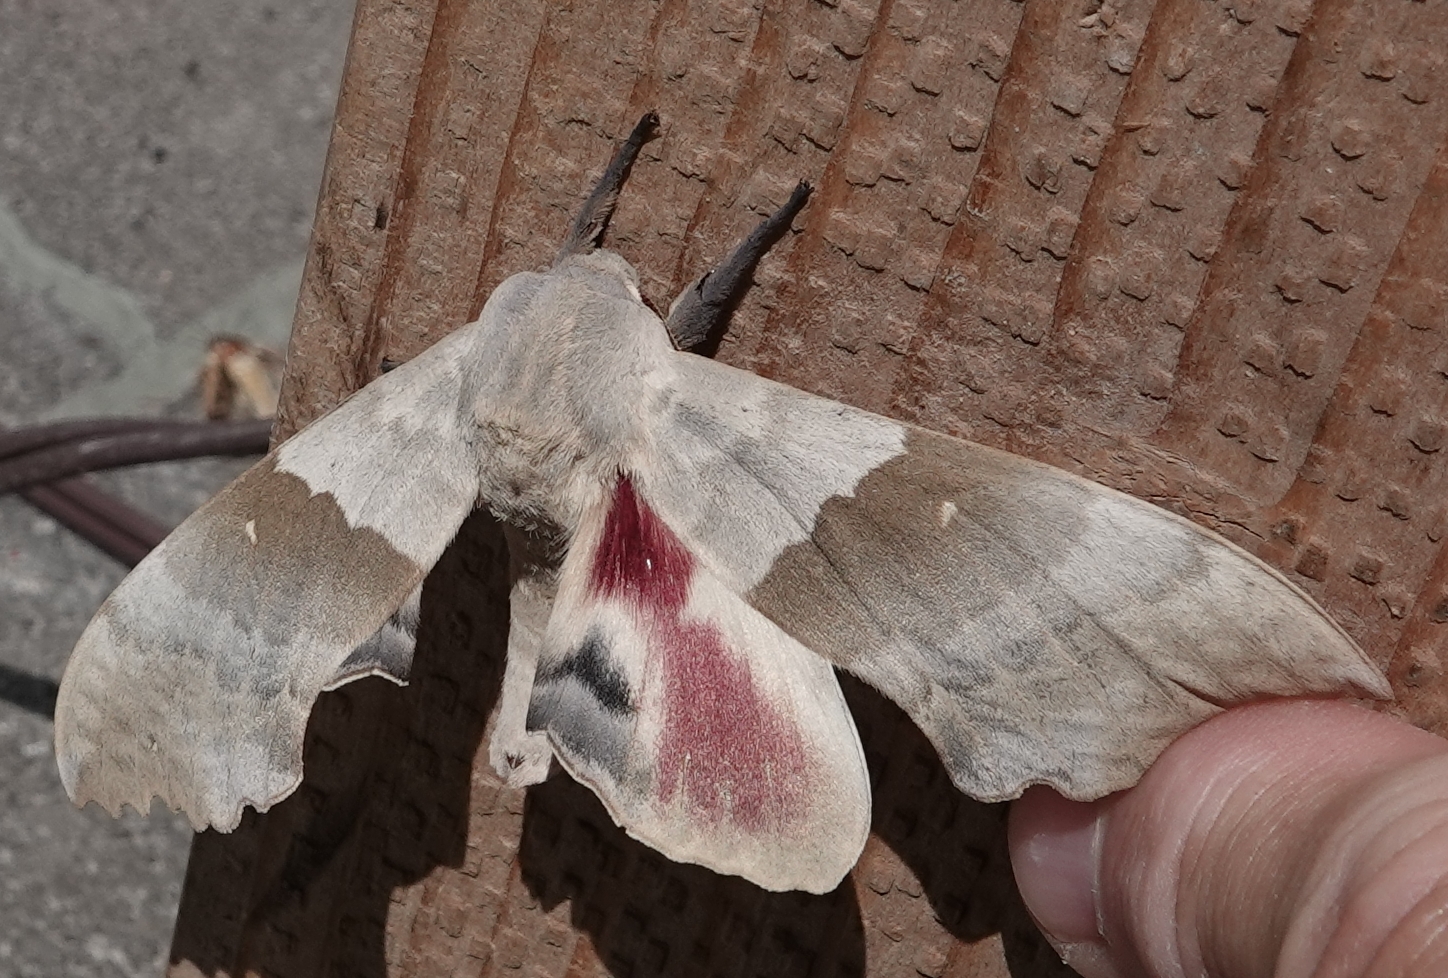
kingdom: Animalia
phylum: Arthropoda
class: Insecta
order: Lepidoptera
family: Sphingidae
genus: Pachysphinx
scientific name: Pachysphinx modesta
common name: Big poplar sphinx
